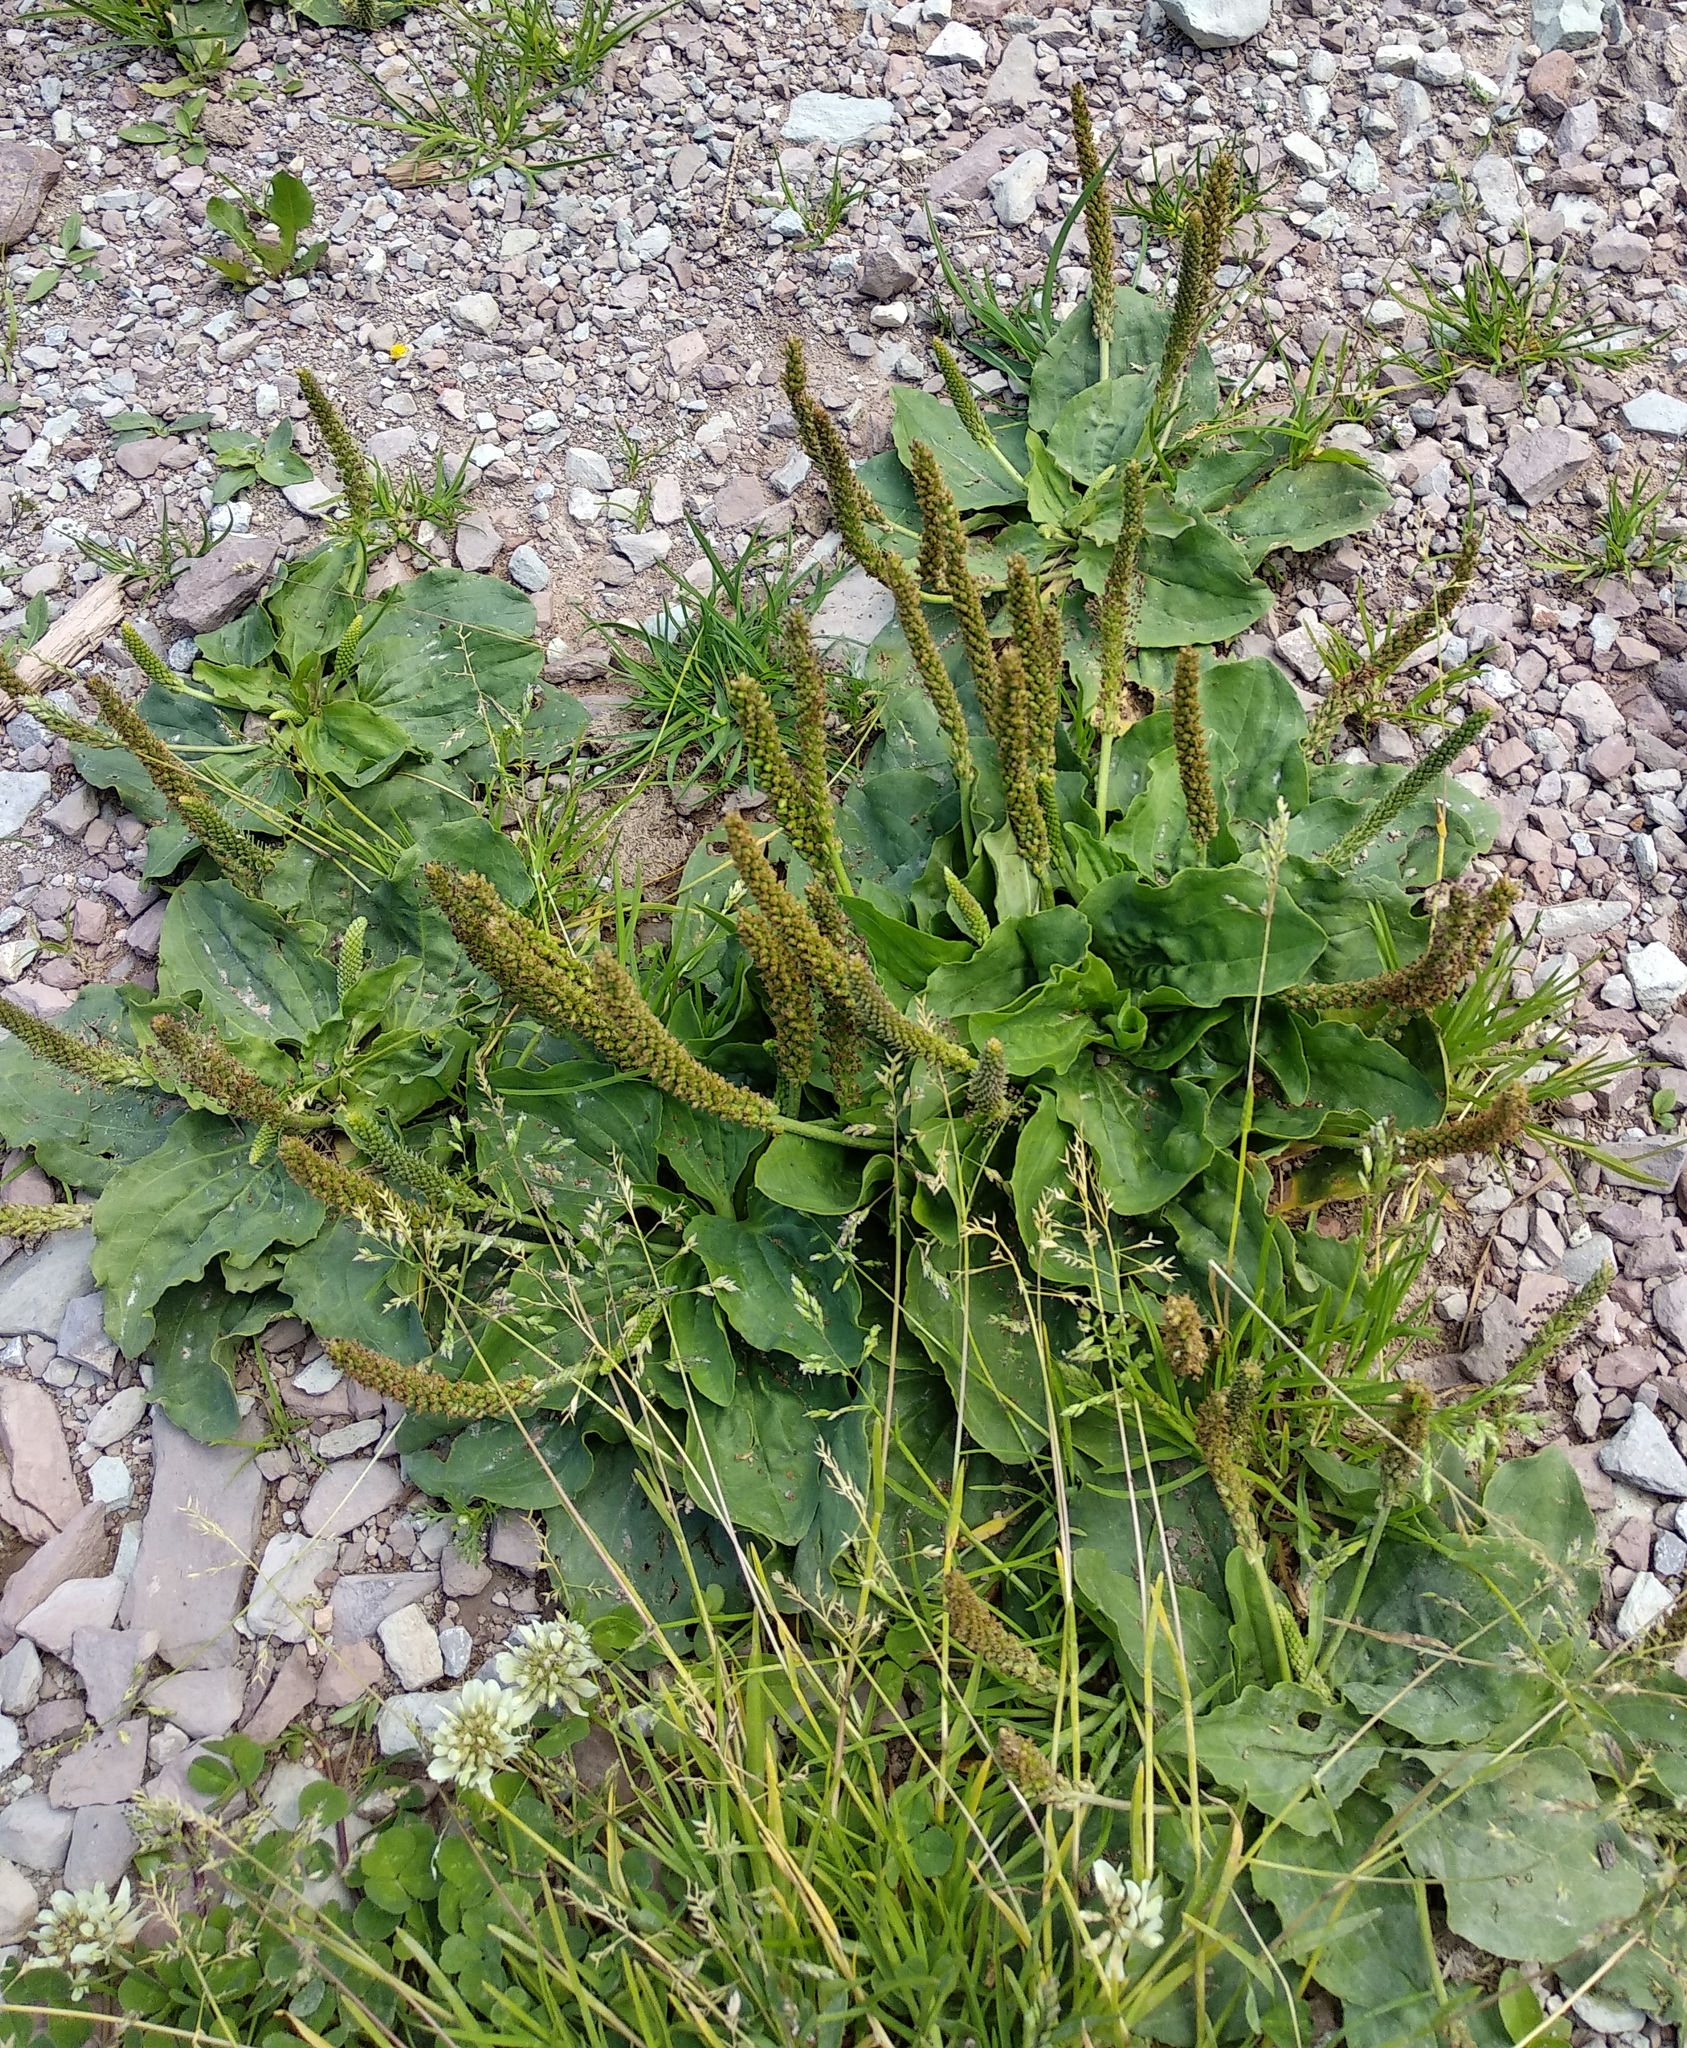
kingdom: Plantae
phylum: Tracheophyta
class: Magnoliopsida
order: Lamiales
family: Plantaginaceae
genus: Plantago
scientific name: Plantago major
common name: Common plantain
